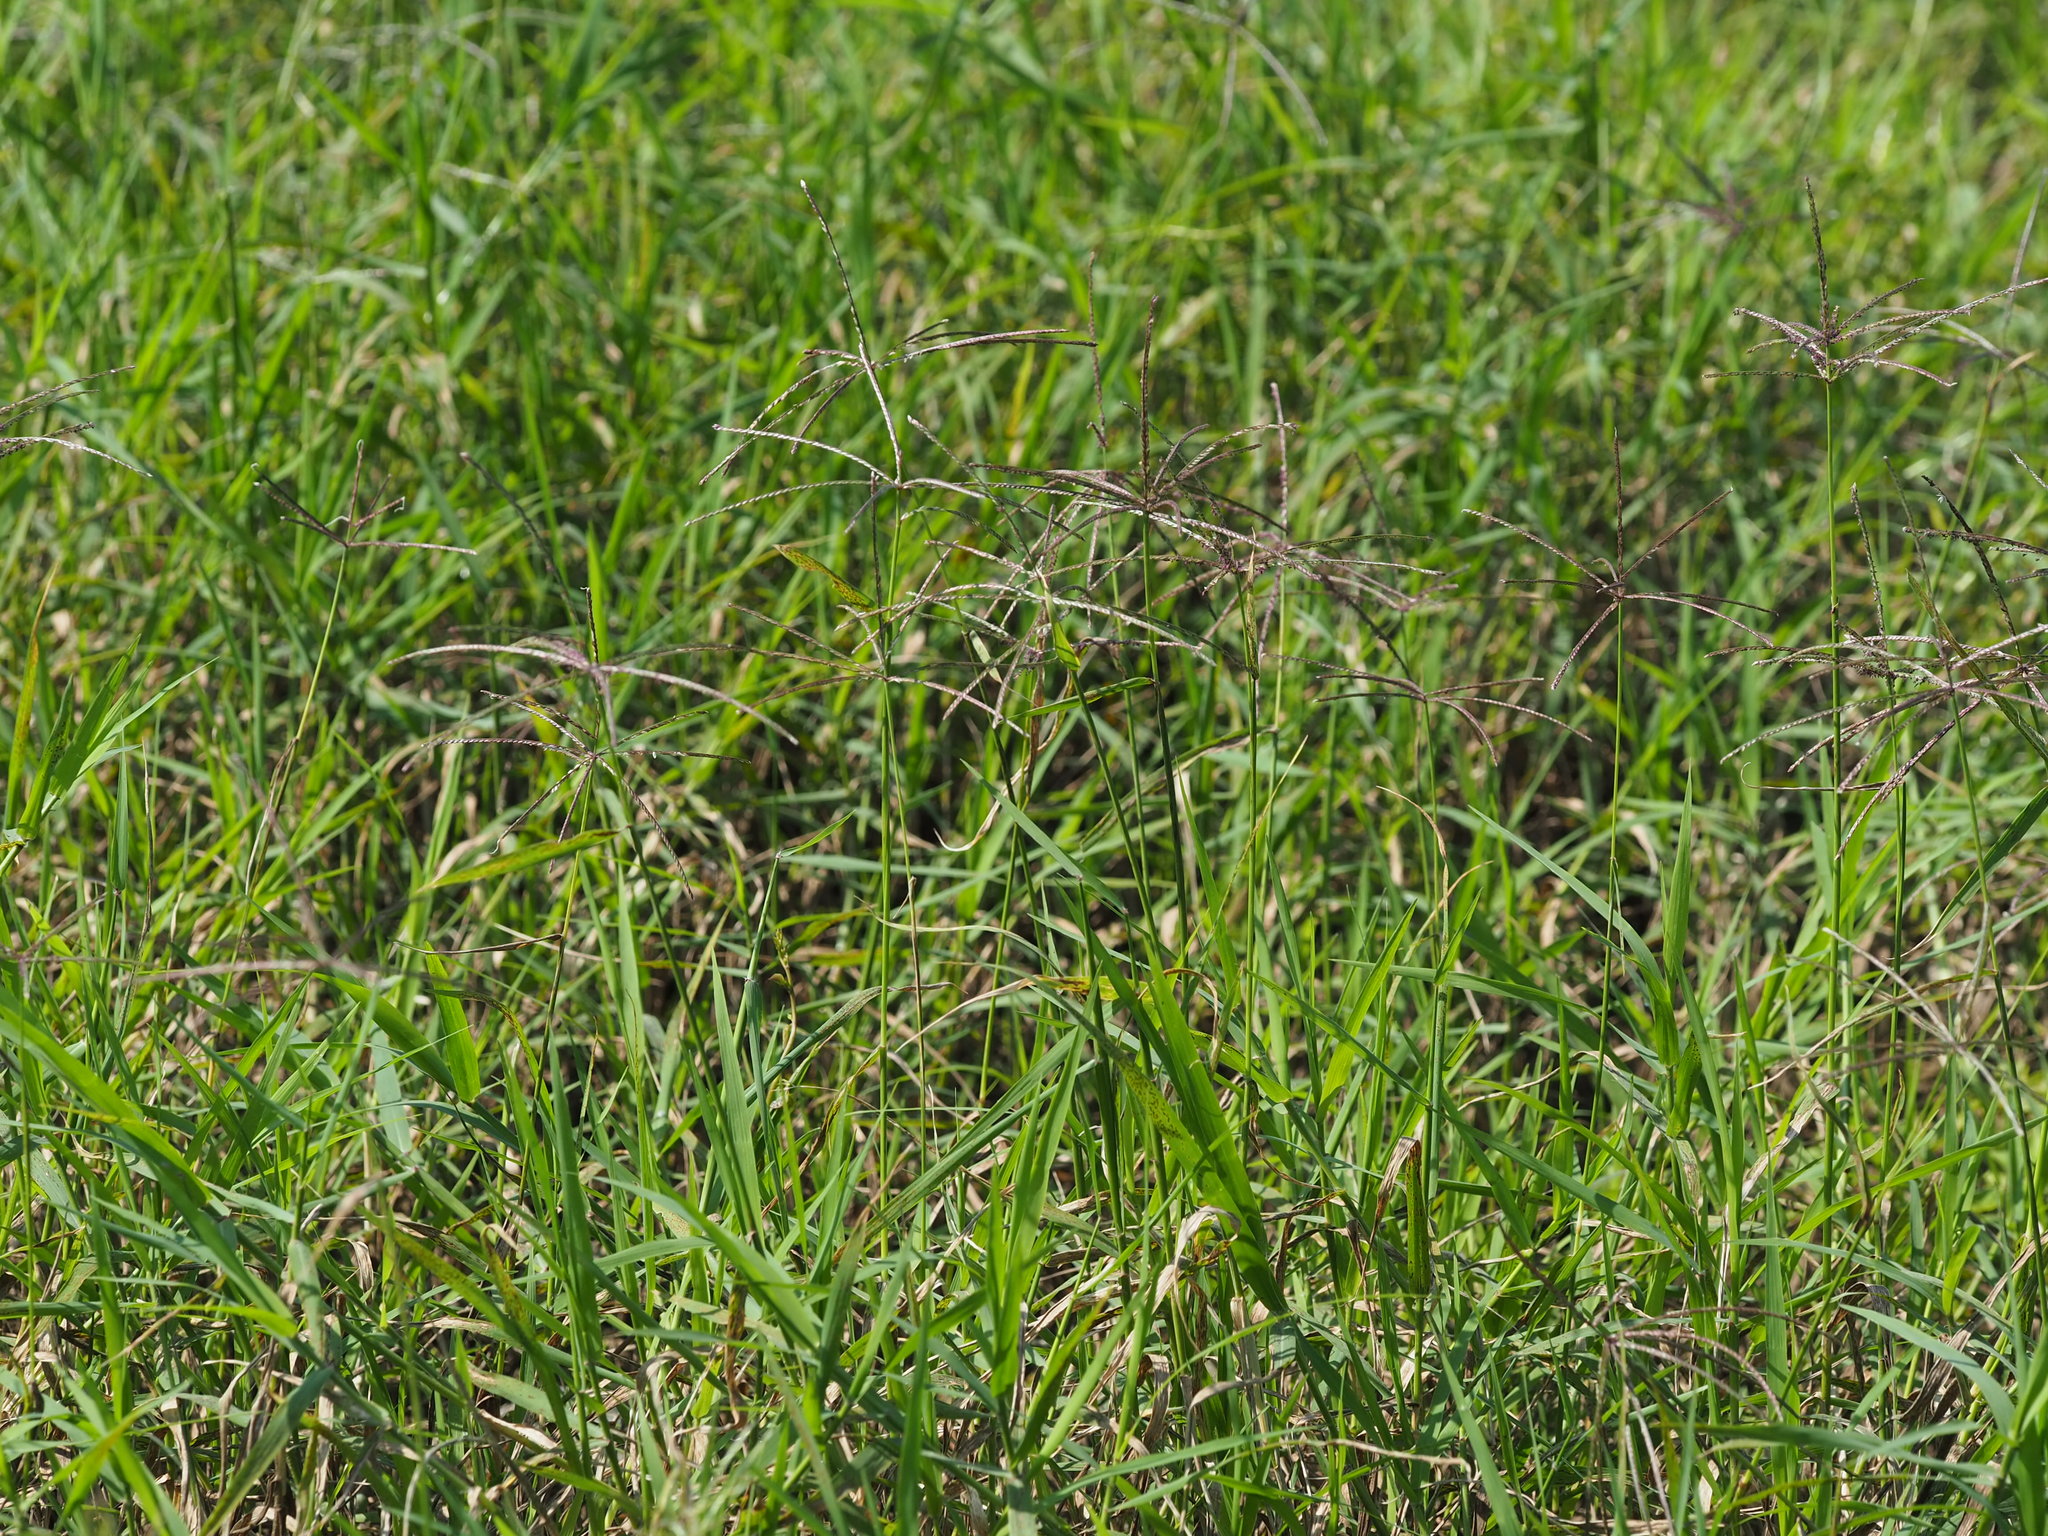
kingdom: Plantae
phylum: Tracheophyta
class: Liliopsida
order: Poales
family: Poaceae
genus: Cynodon
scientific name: Cynodon nlemfuensis
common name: African bermudagrass
